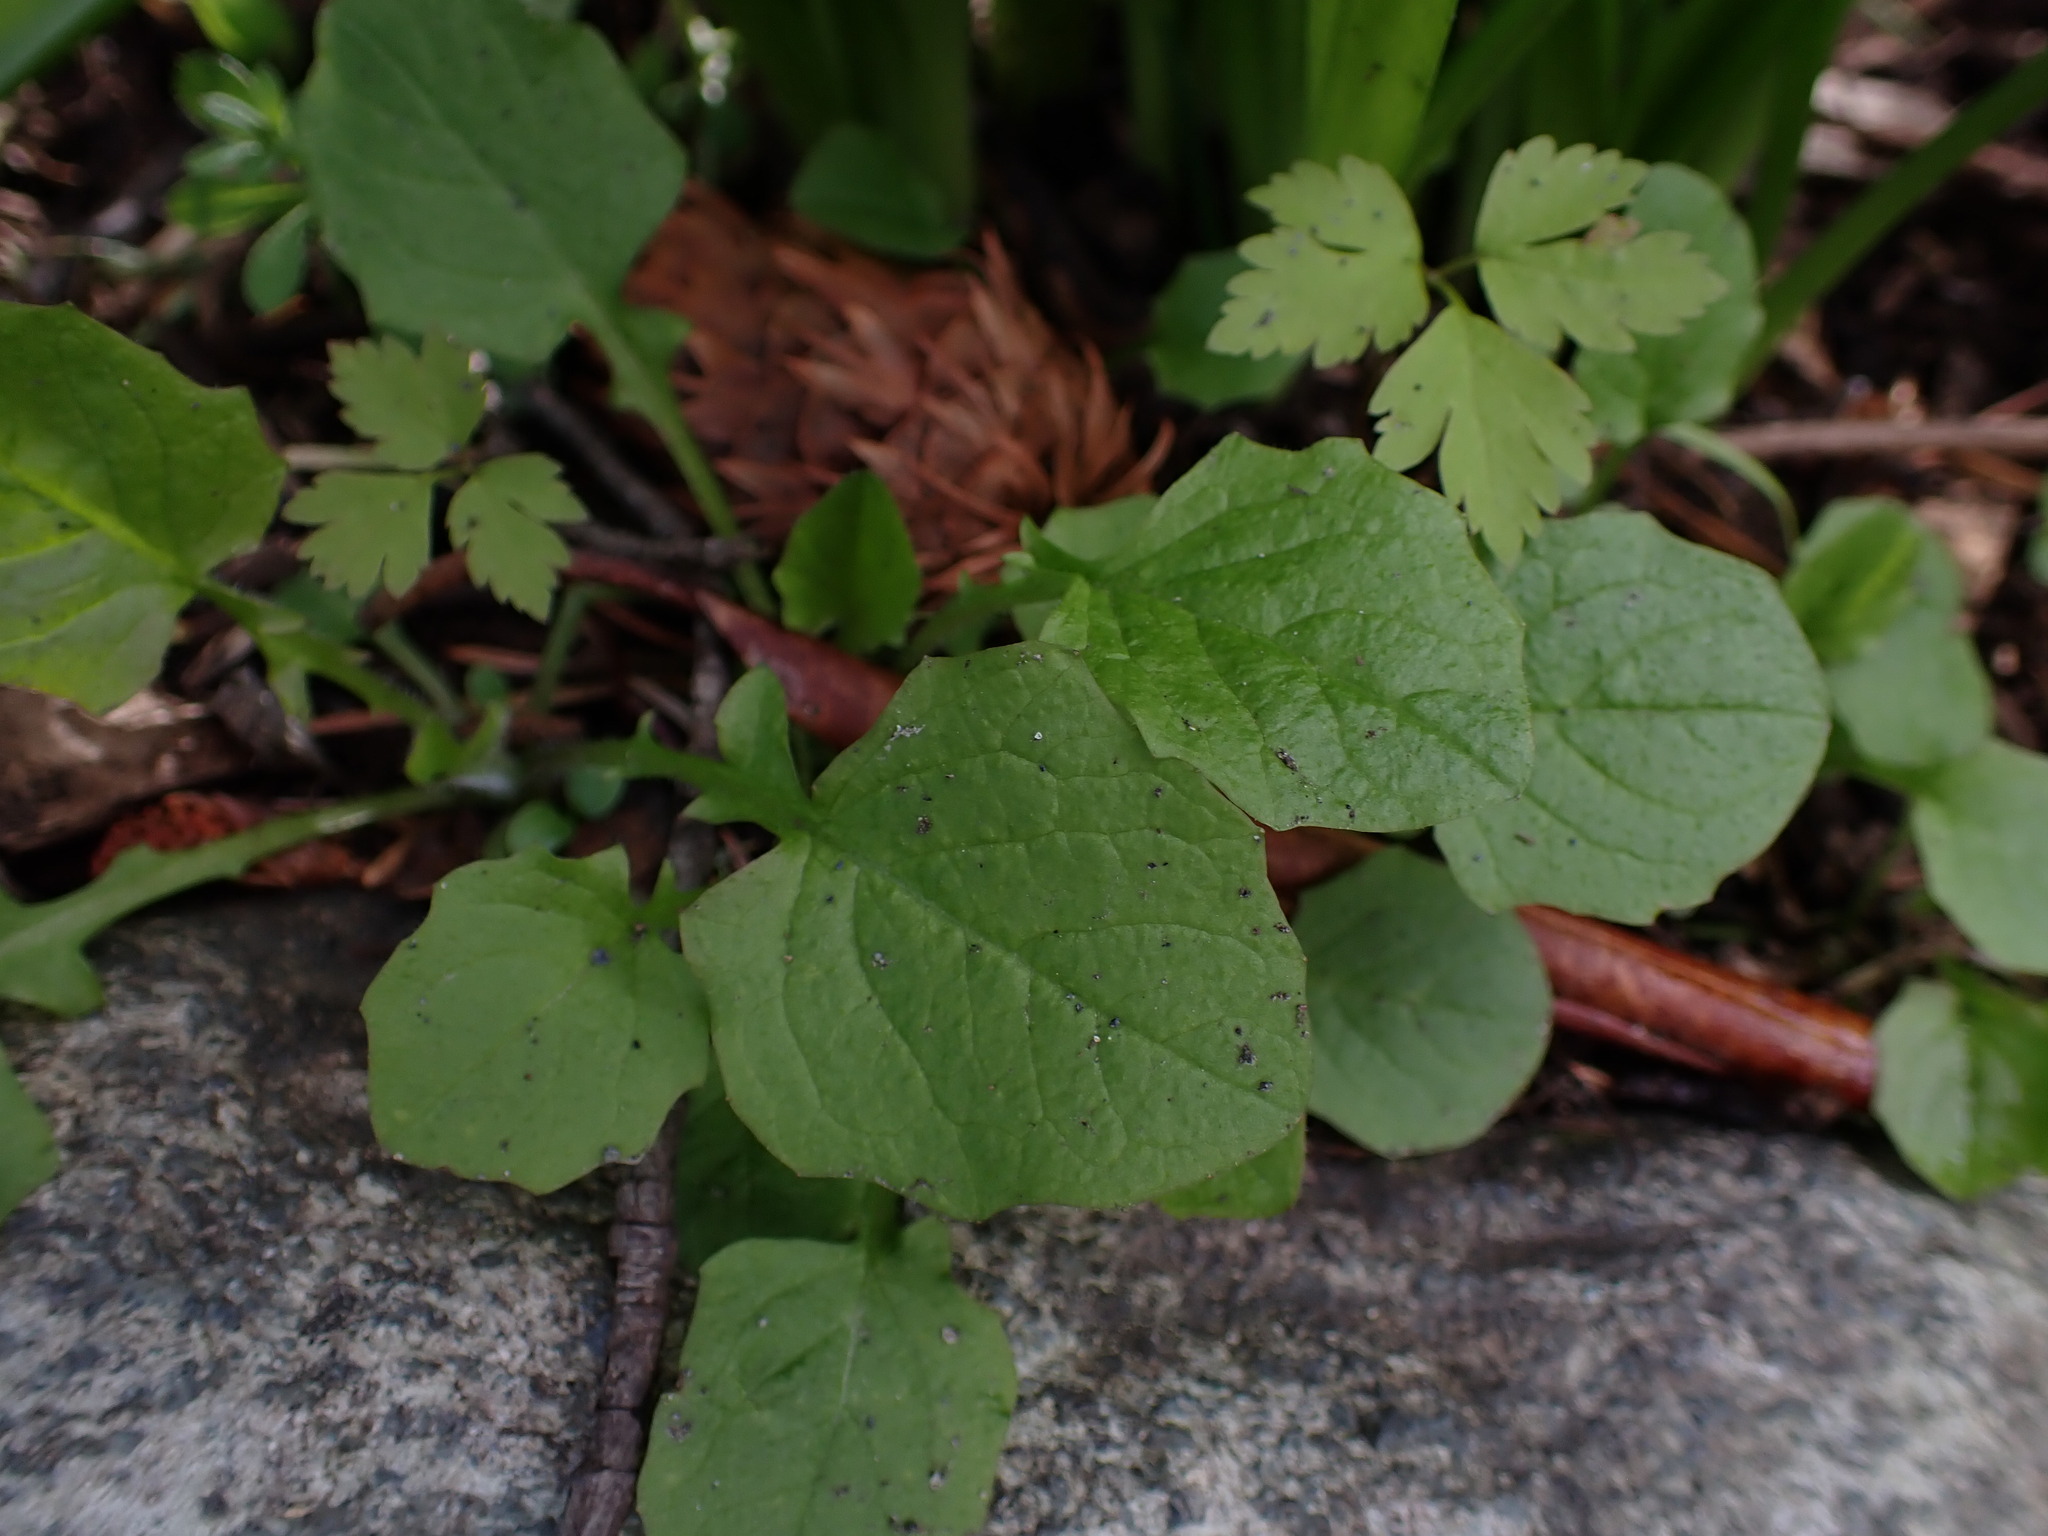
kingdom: Plantae
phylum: Tracheophyta
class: Magnoliopsida
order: Asterales
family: Asteraceae
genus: Lapsana
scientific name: Lapsana communis
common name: Nipplewort
